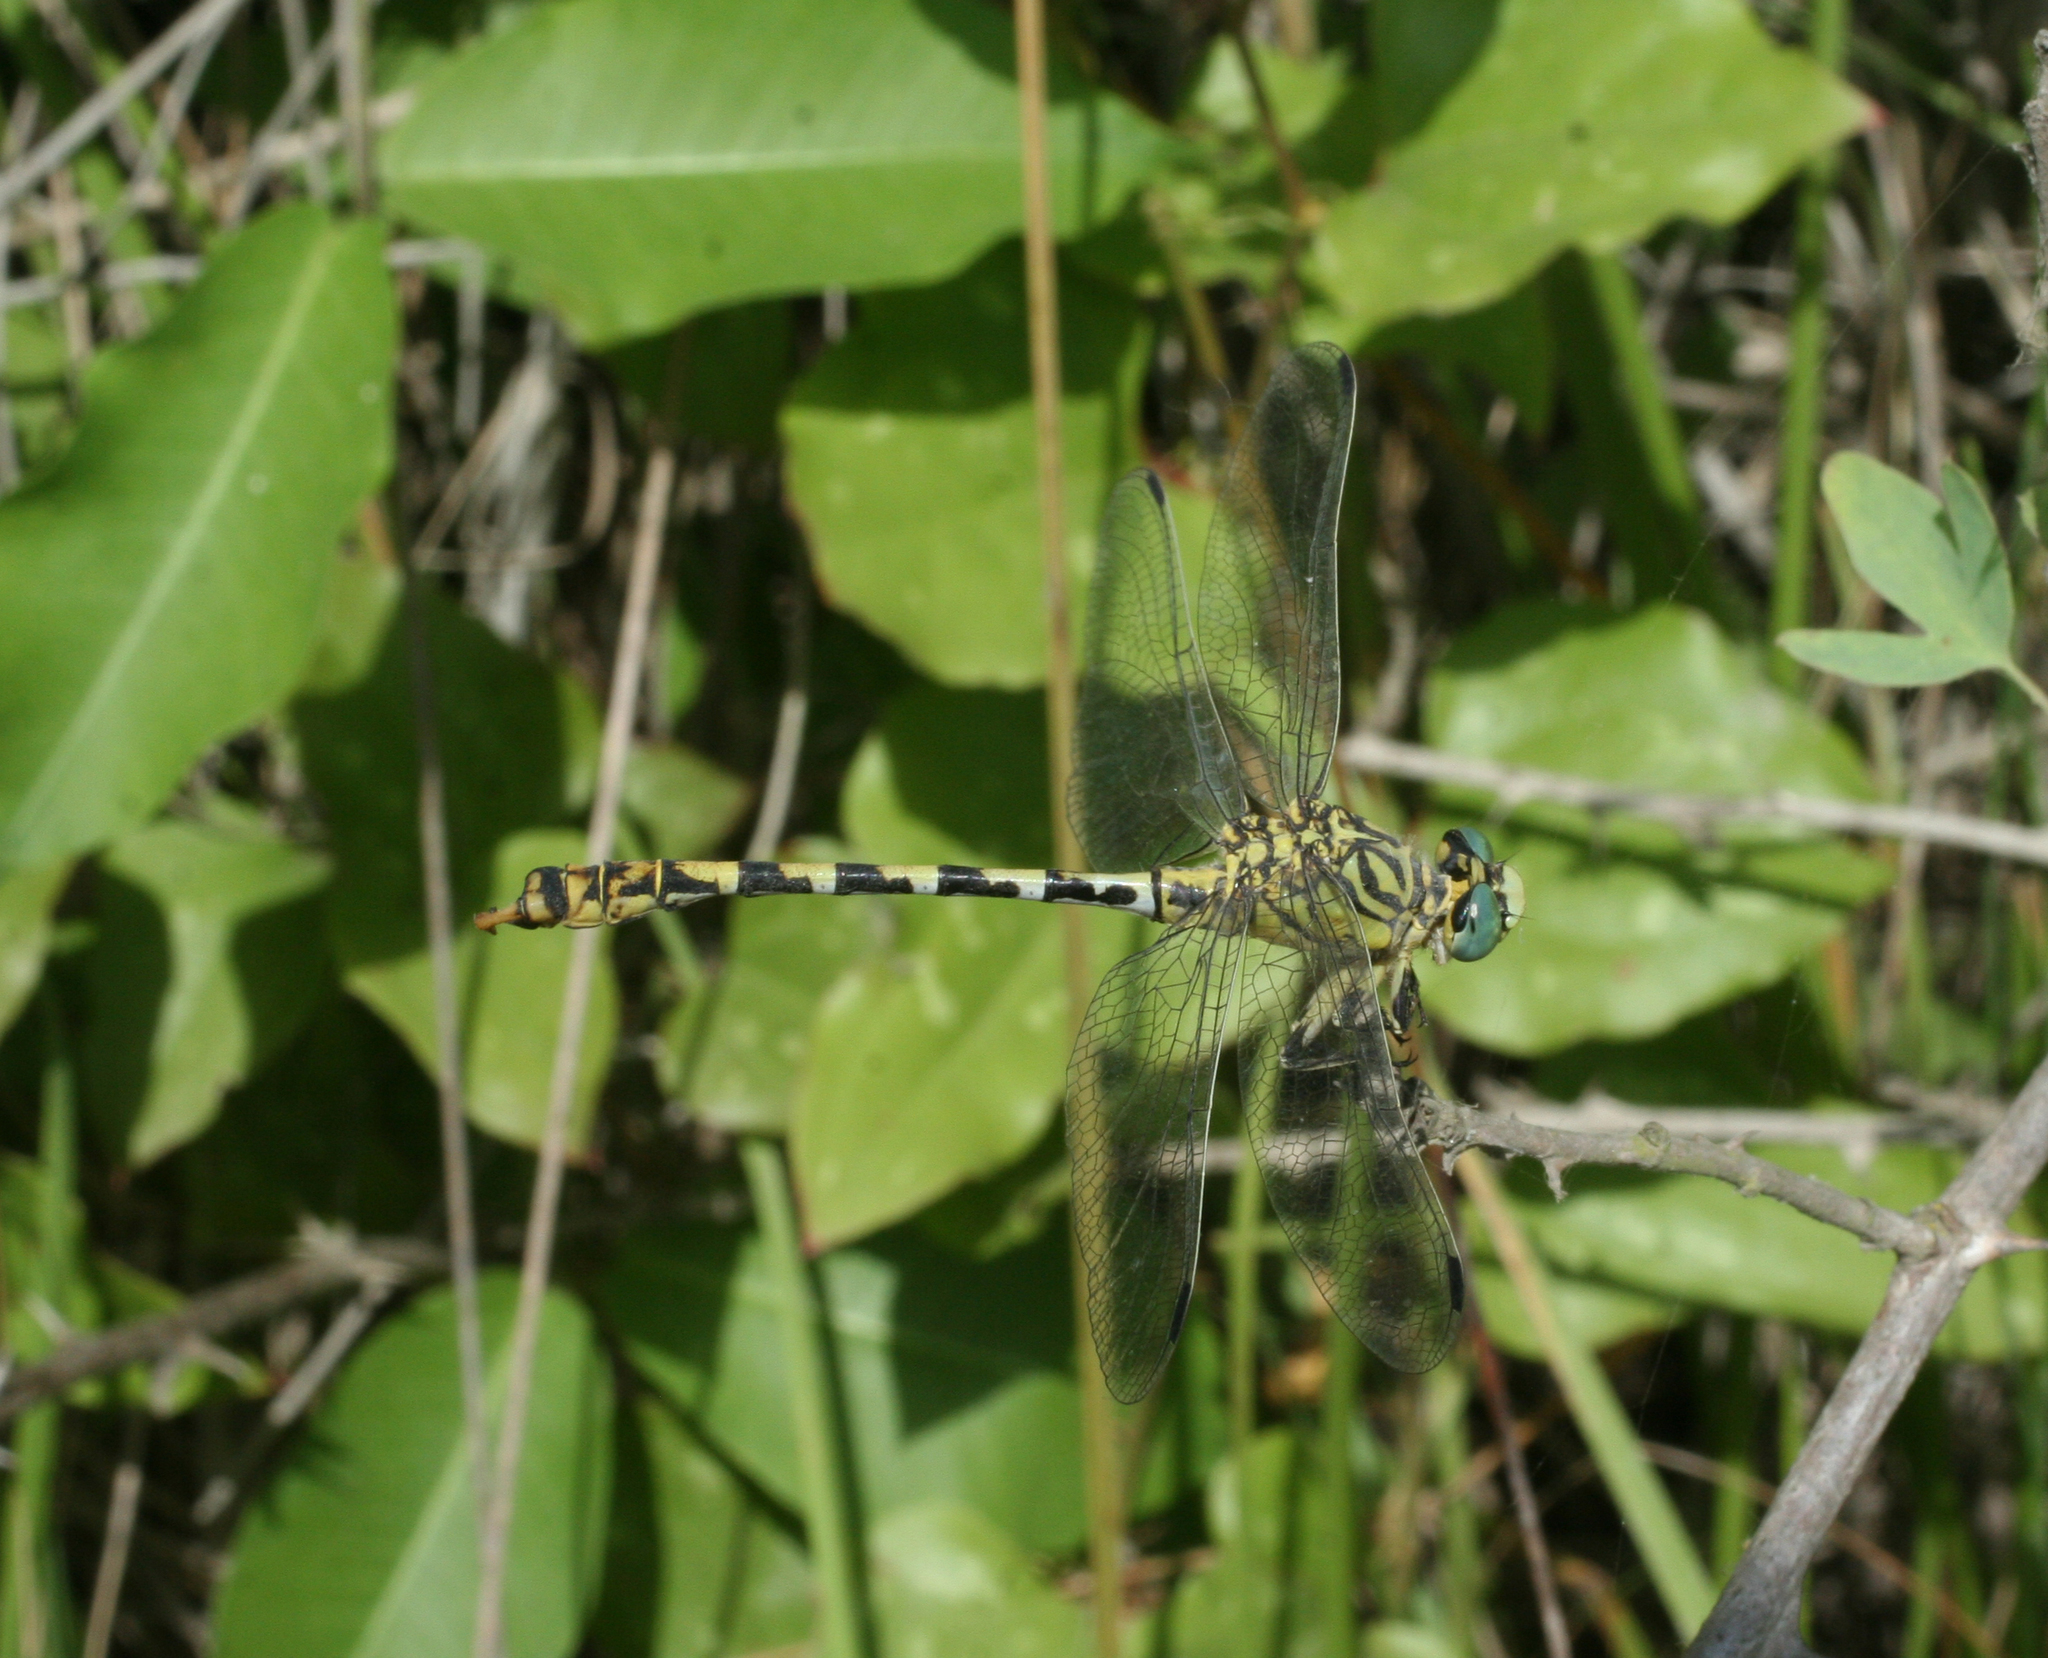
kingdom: Animalia
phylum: Arthropoda
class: Insecta
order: Odonata
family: Gomphidae
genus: Onychogomphus
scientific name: Onychogomphus forcipatus
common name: Small pincertail
